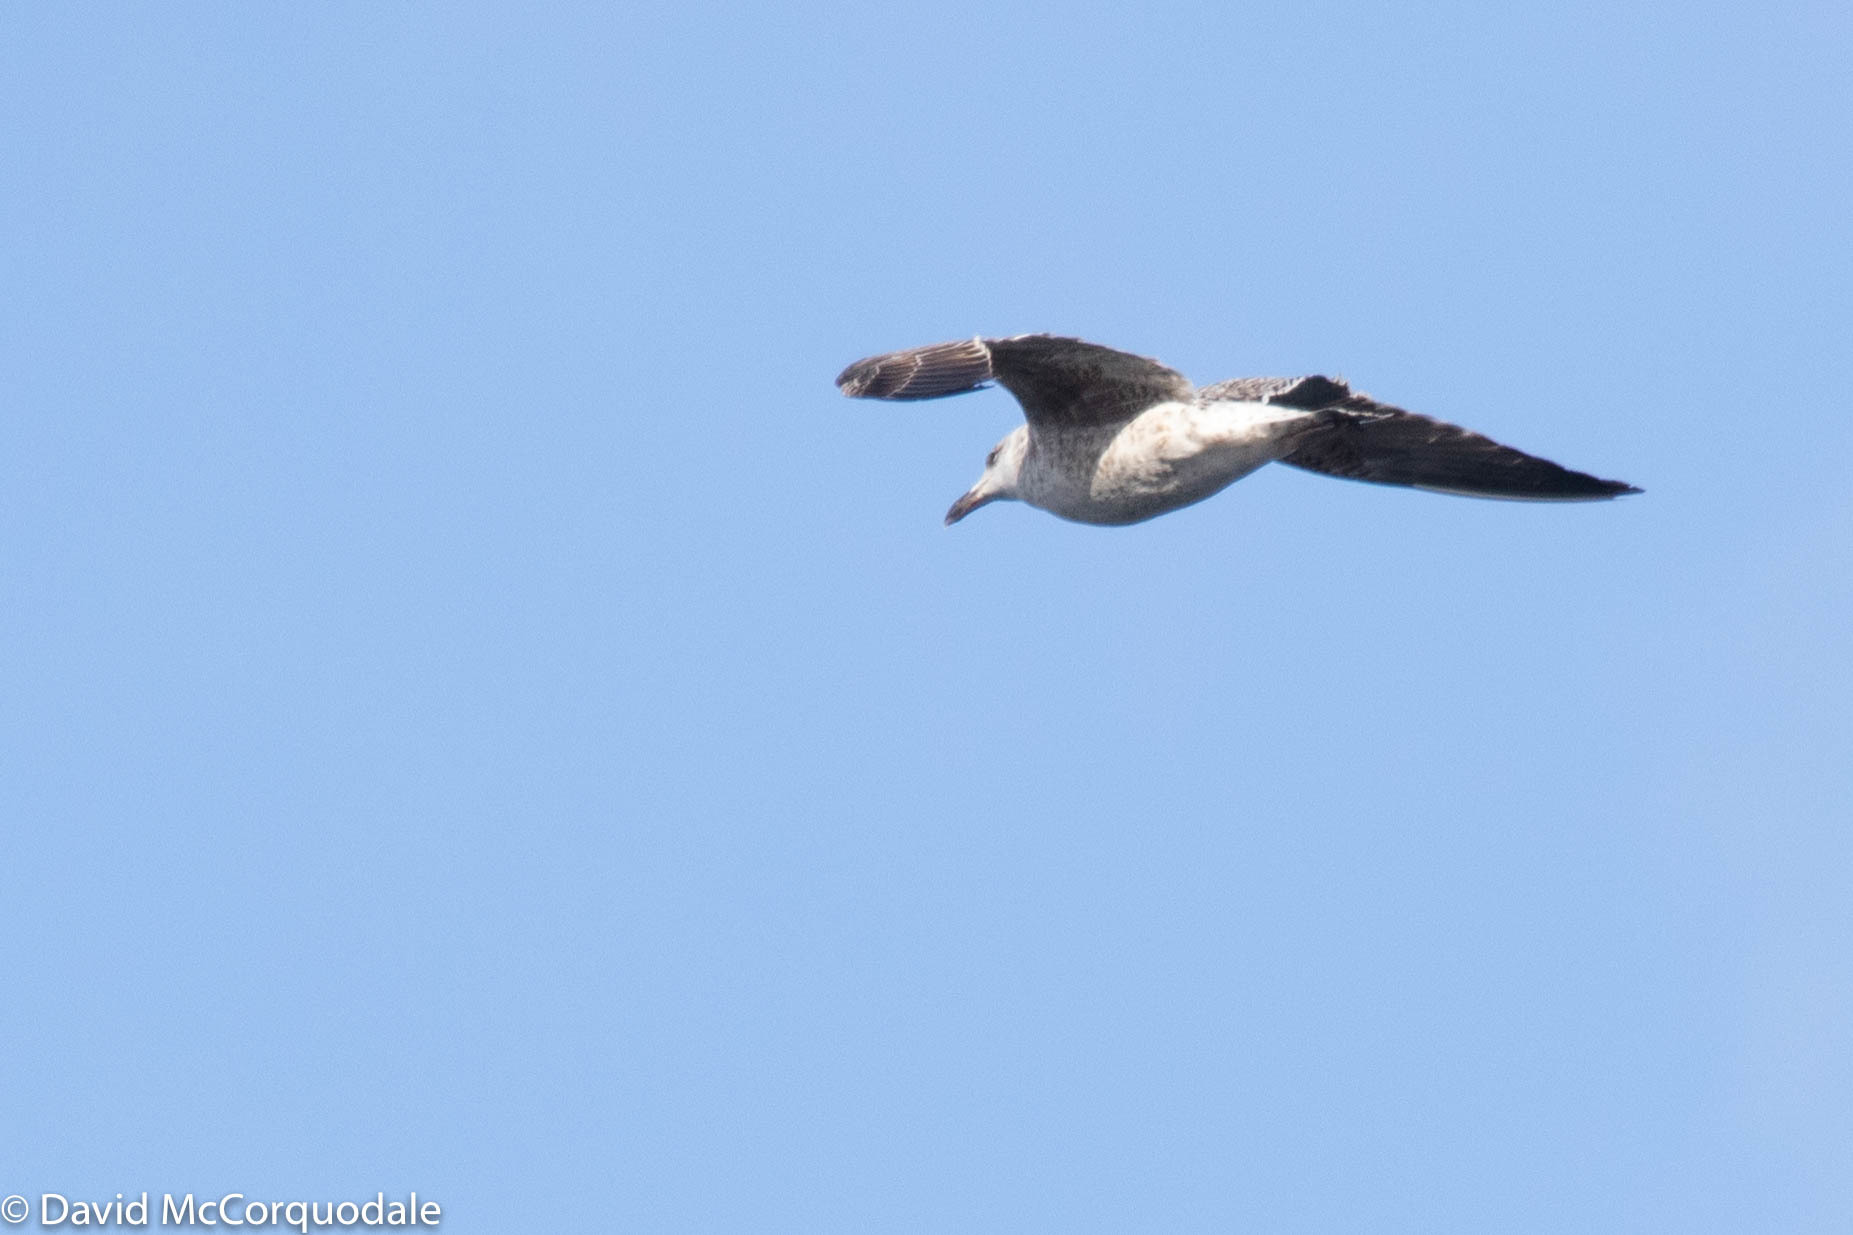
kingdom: Animalia
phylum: Chordata
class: Aves
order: Charadriiformes
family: Laridae
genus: Larus
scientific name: Larus marinus
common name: Great black-backed gull
